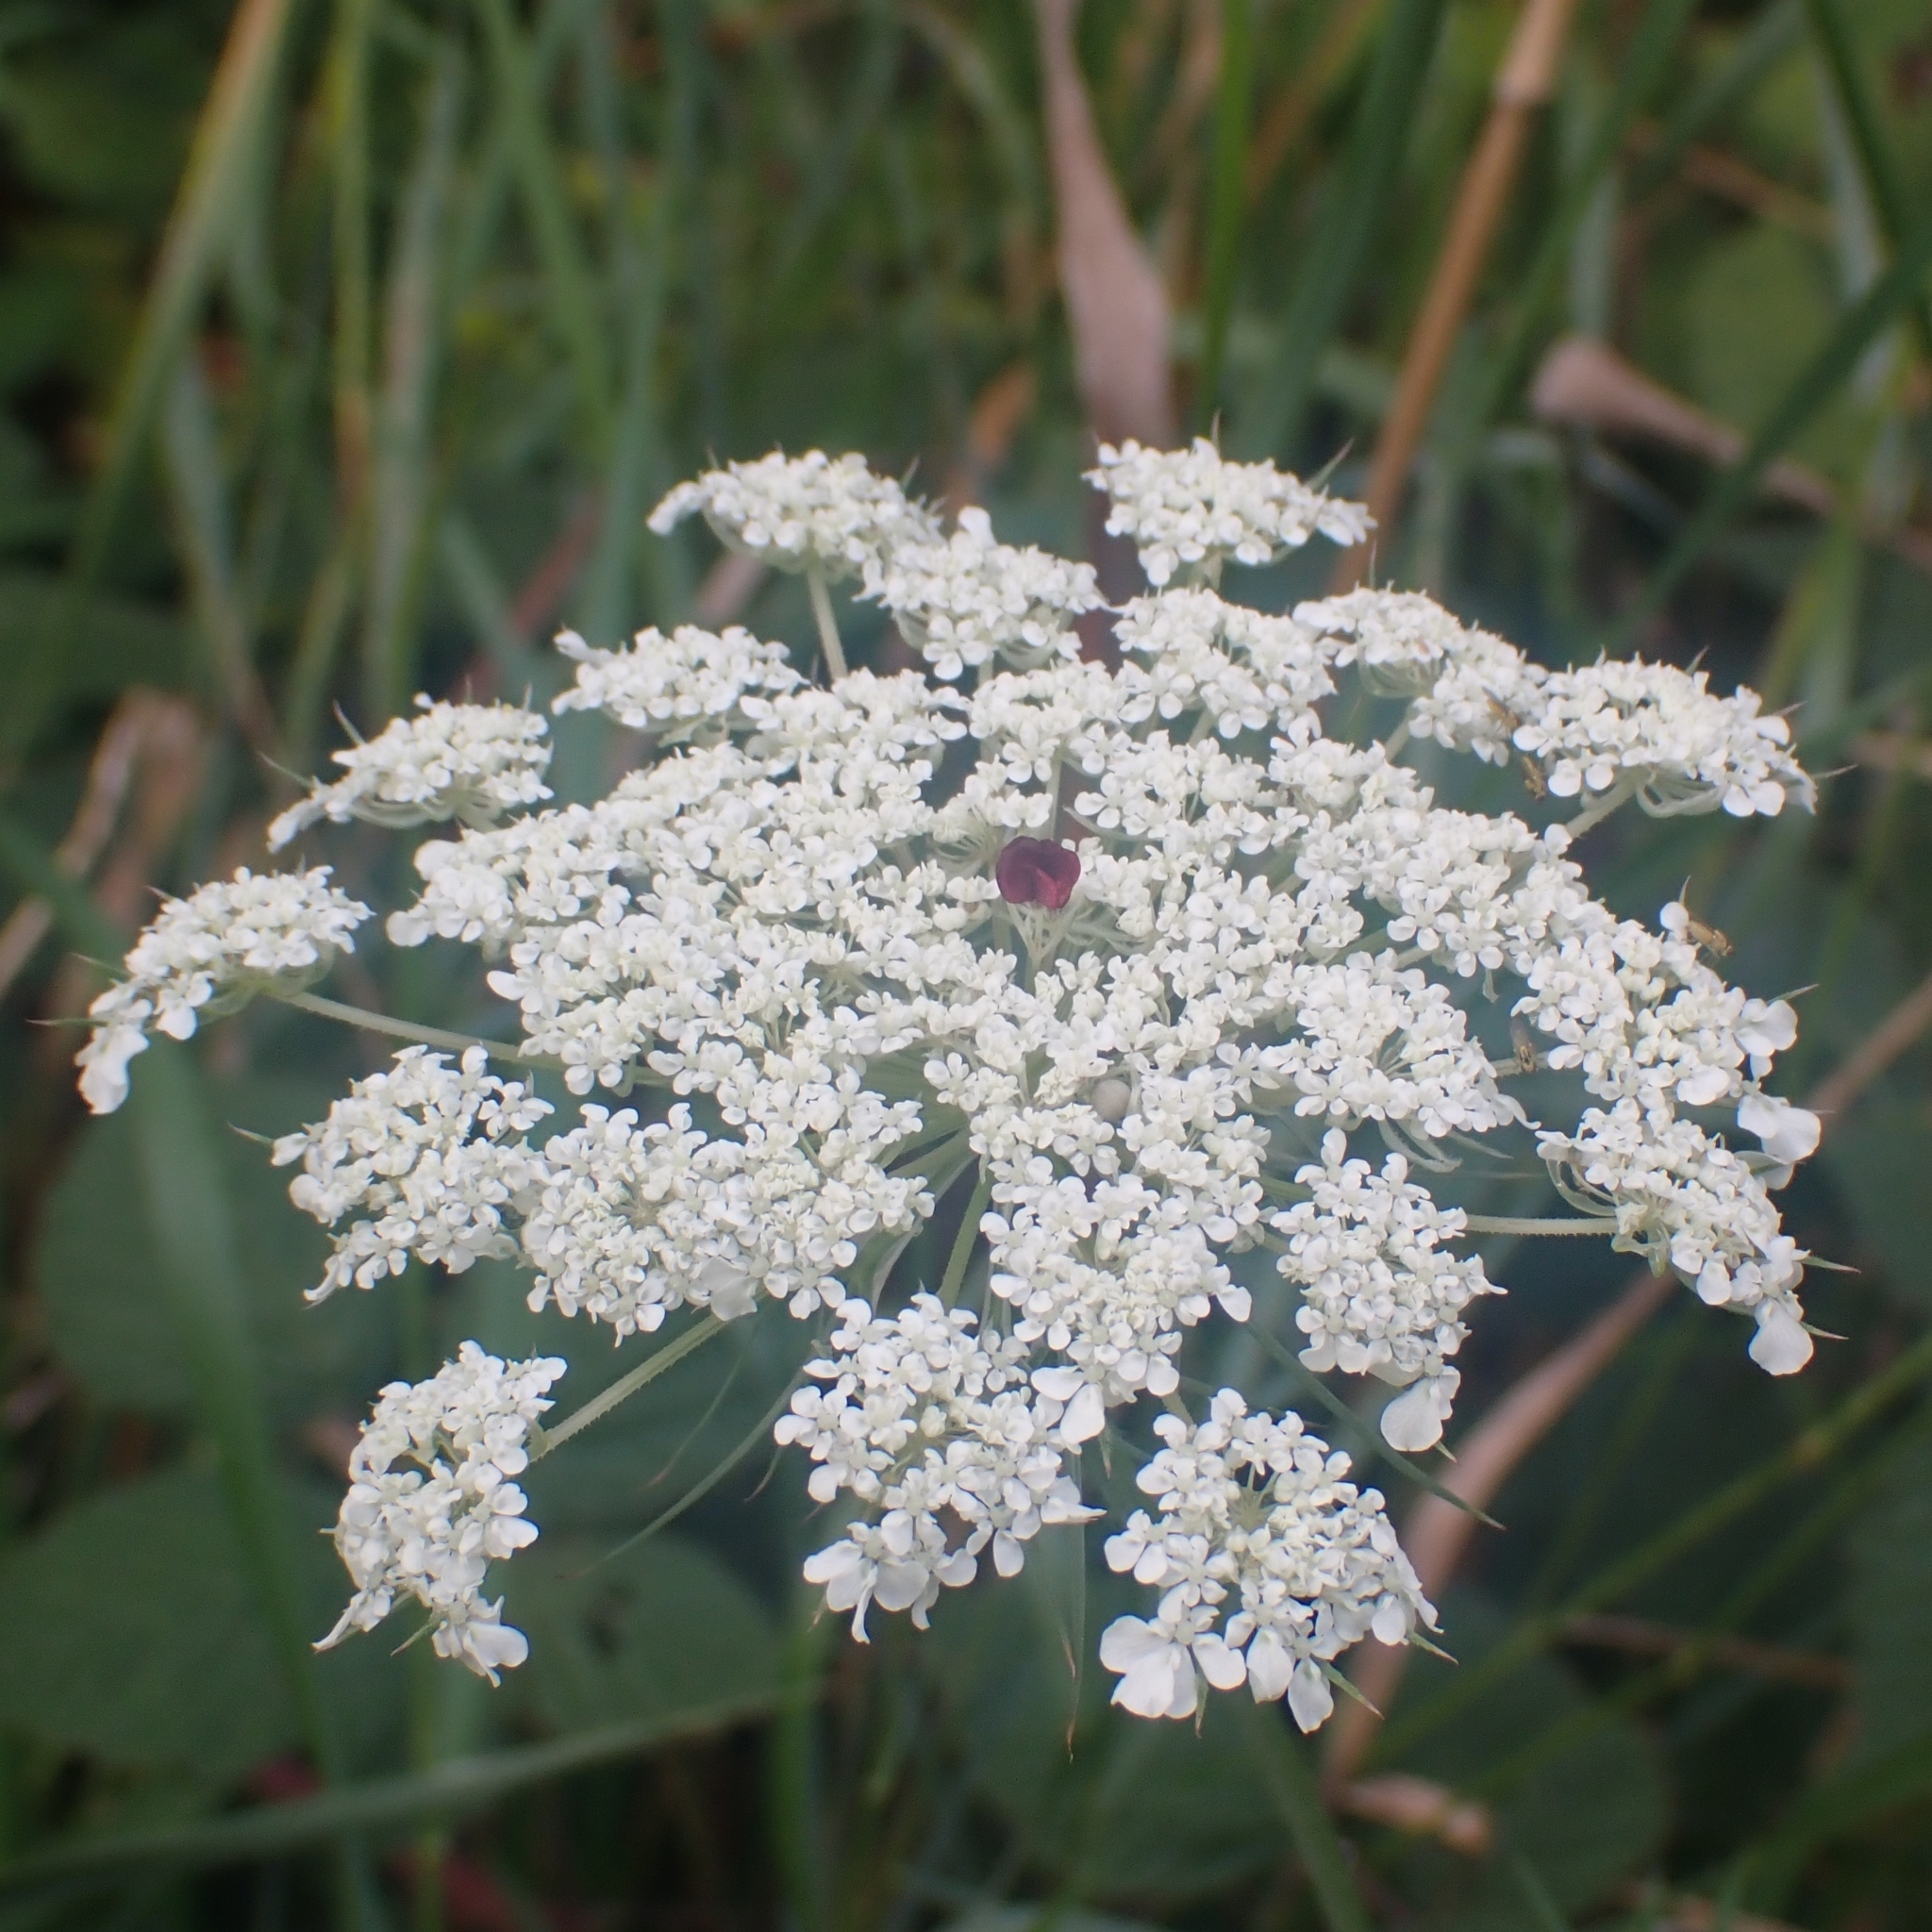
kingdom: Plantae
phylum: Tracheophyta
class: Magnoliopsida
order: Apiales
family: Apiaceae
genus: Daucus
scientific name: Daucus carota
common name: Wild carrot
